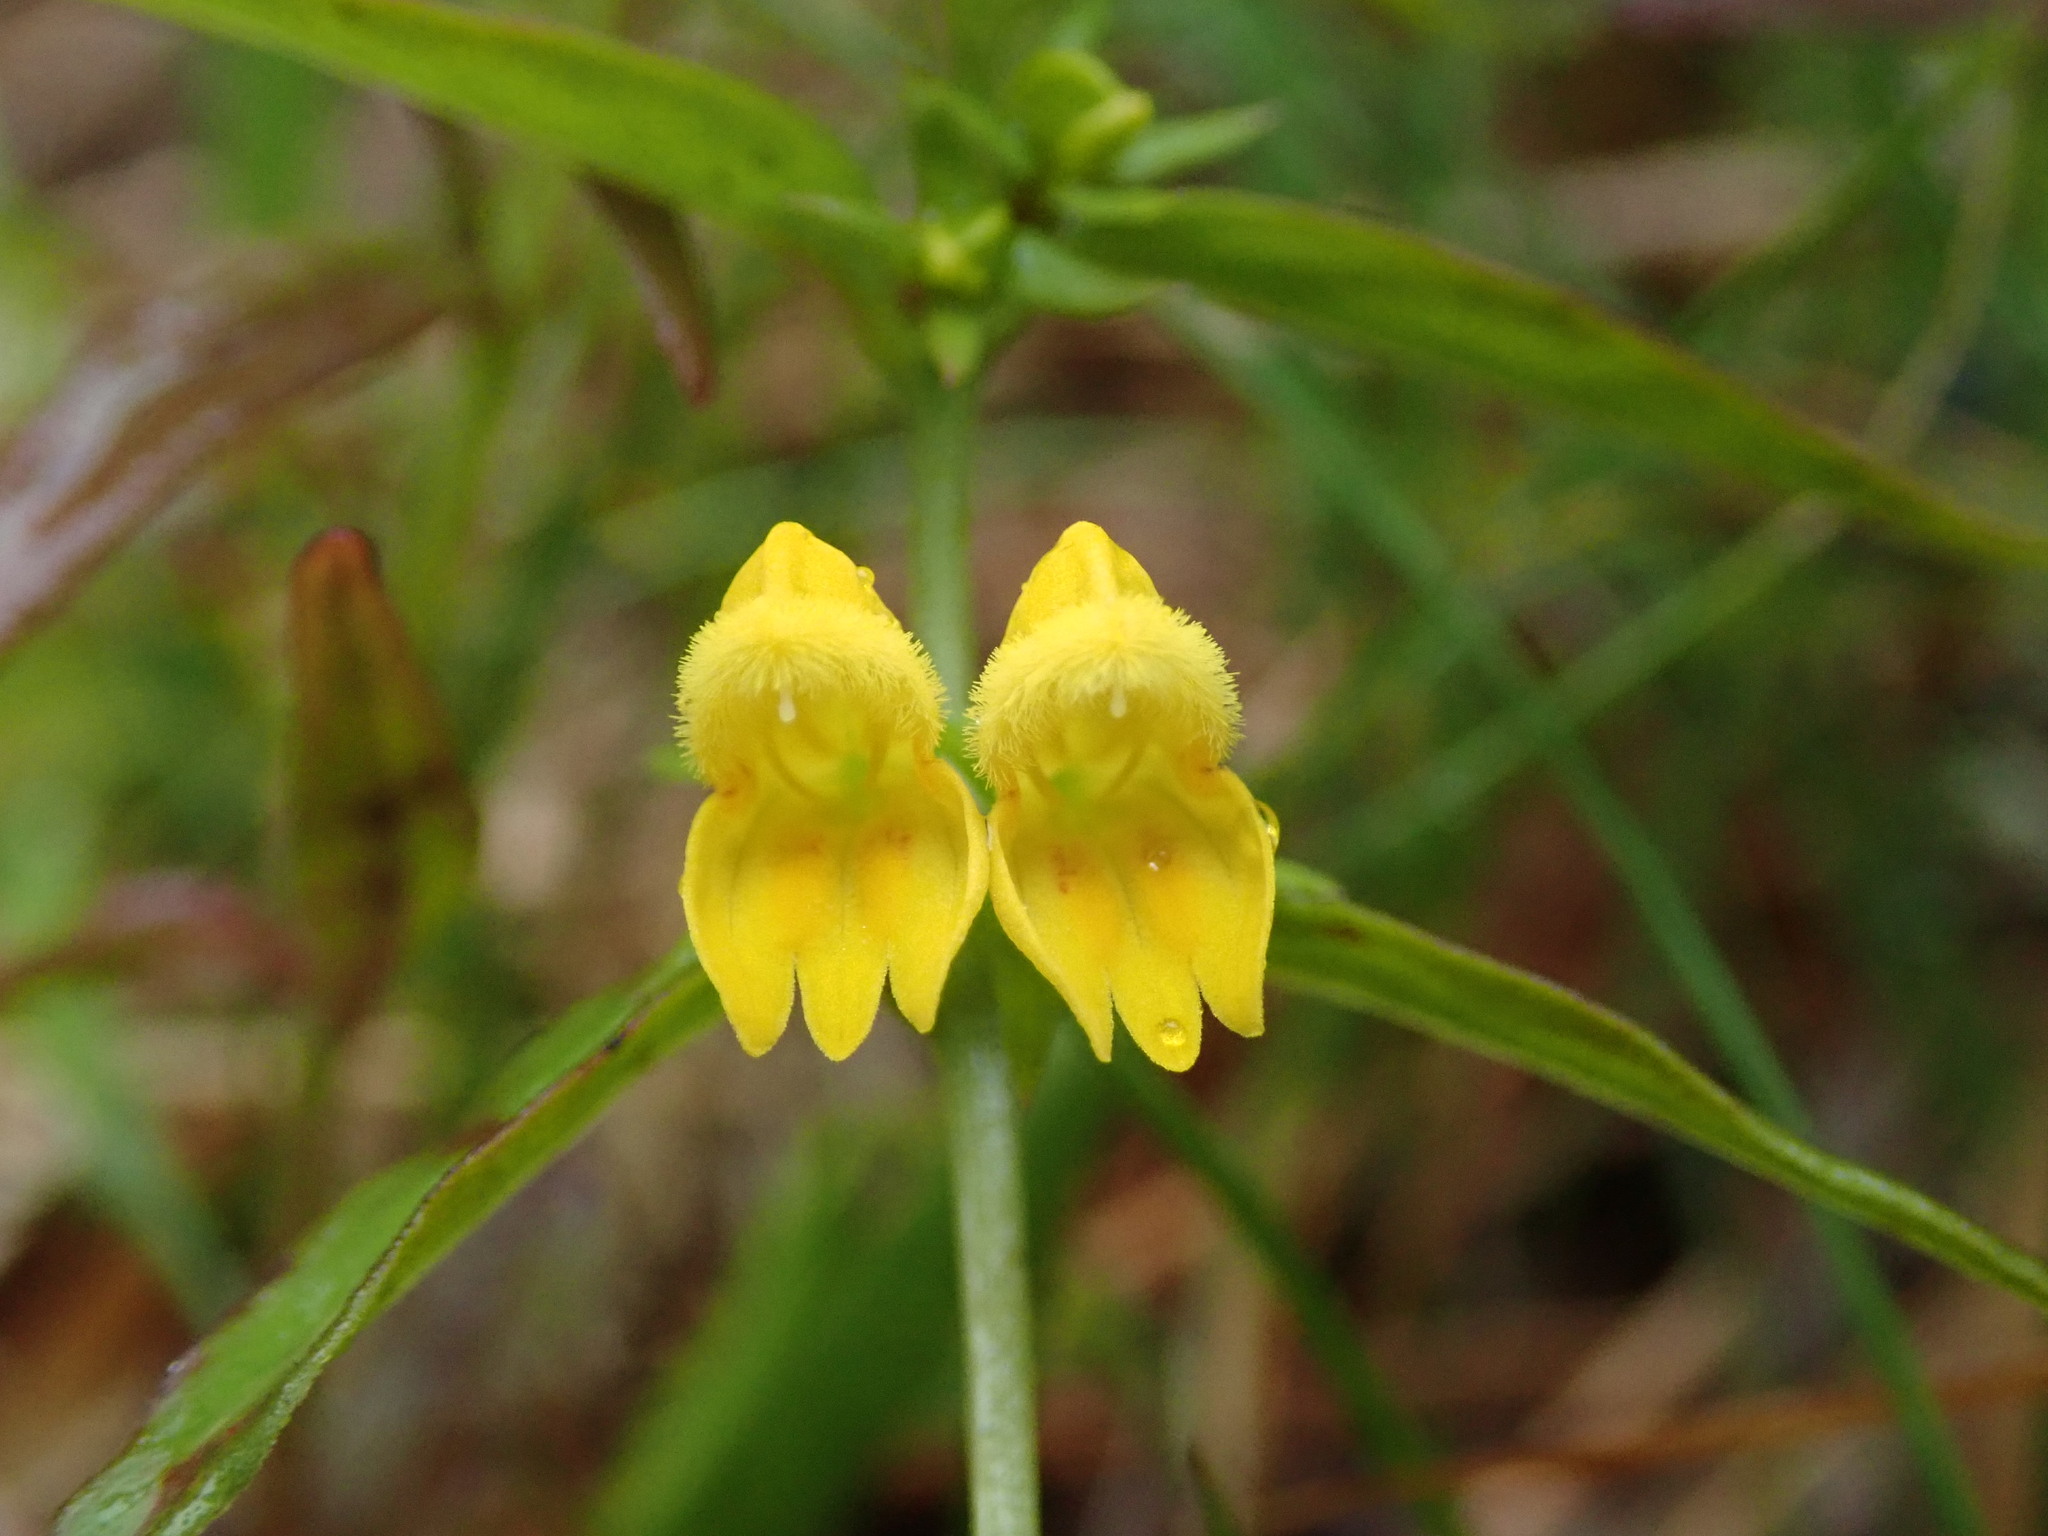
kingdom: Plantae
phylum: Tracheophyta
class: Magnoliopsida
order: Lamiales
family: Orobanchaceae
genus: Melampyrum
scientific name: Melampyrum sylvaticum
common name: Small cow-wheat
